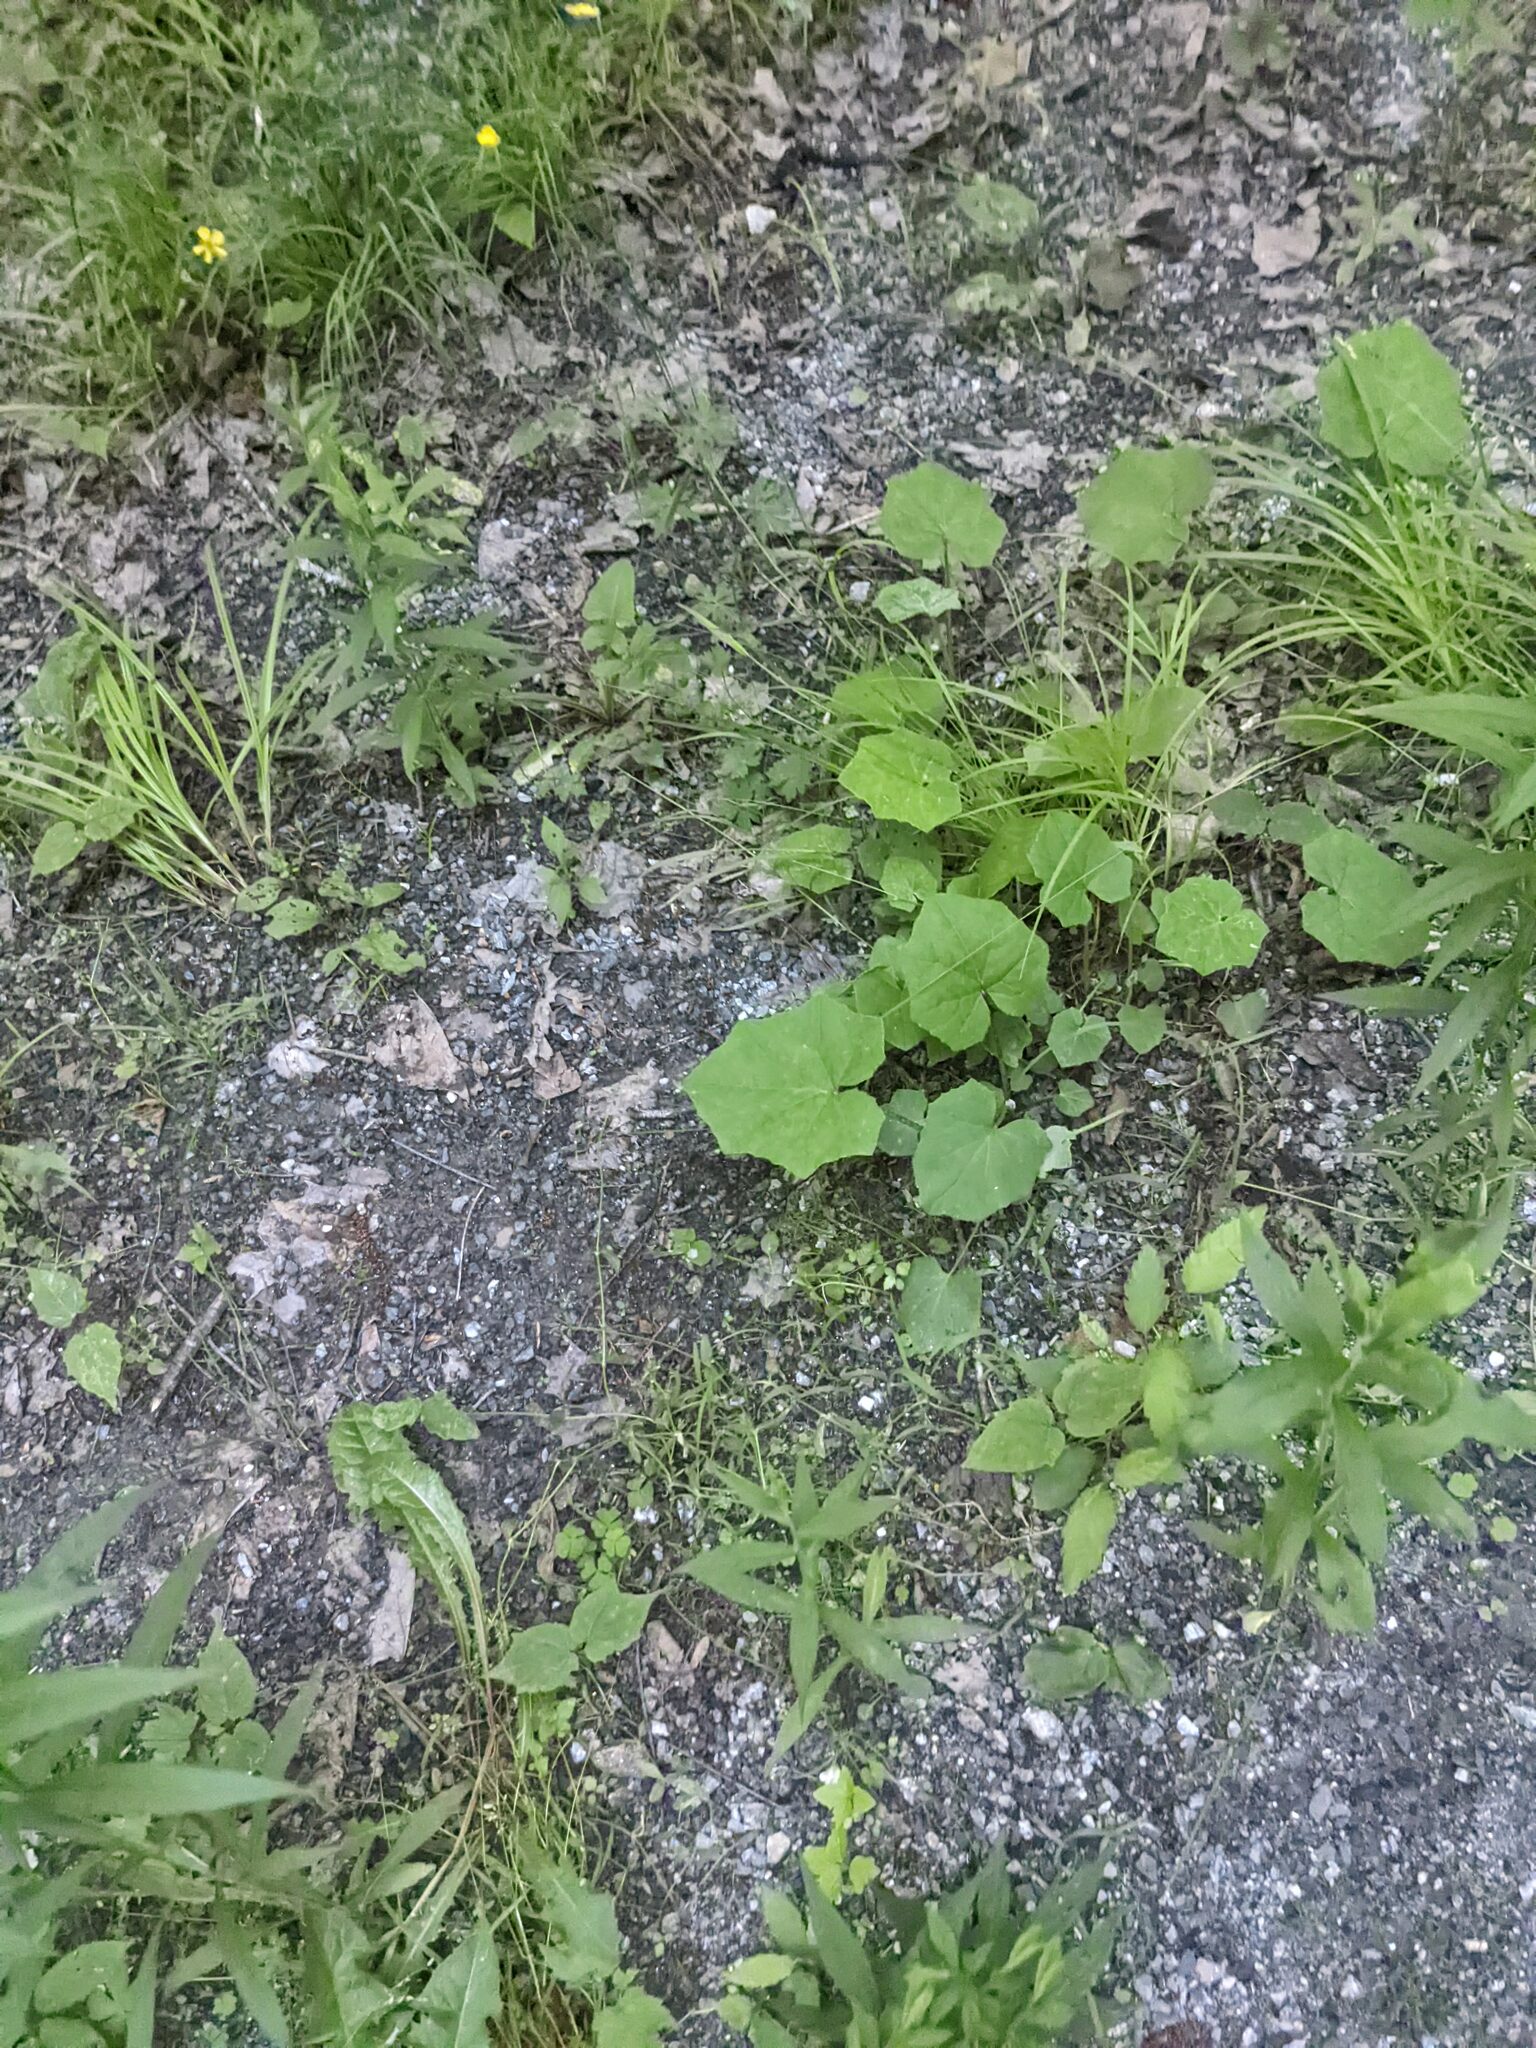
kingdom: Plantae
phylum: Tracheophyta
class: Magnoliopsida
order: Asterales
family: Asteraceae
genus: Tussilago
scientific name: Tussilago farfara
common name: Coltsfoot
